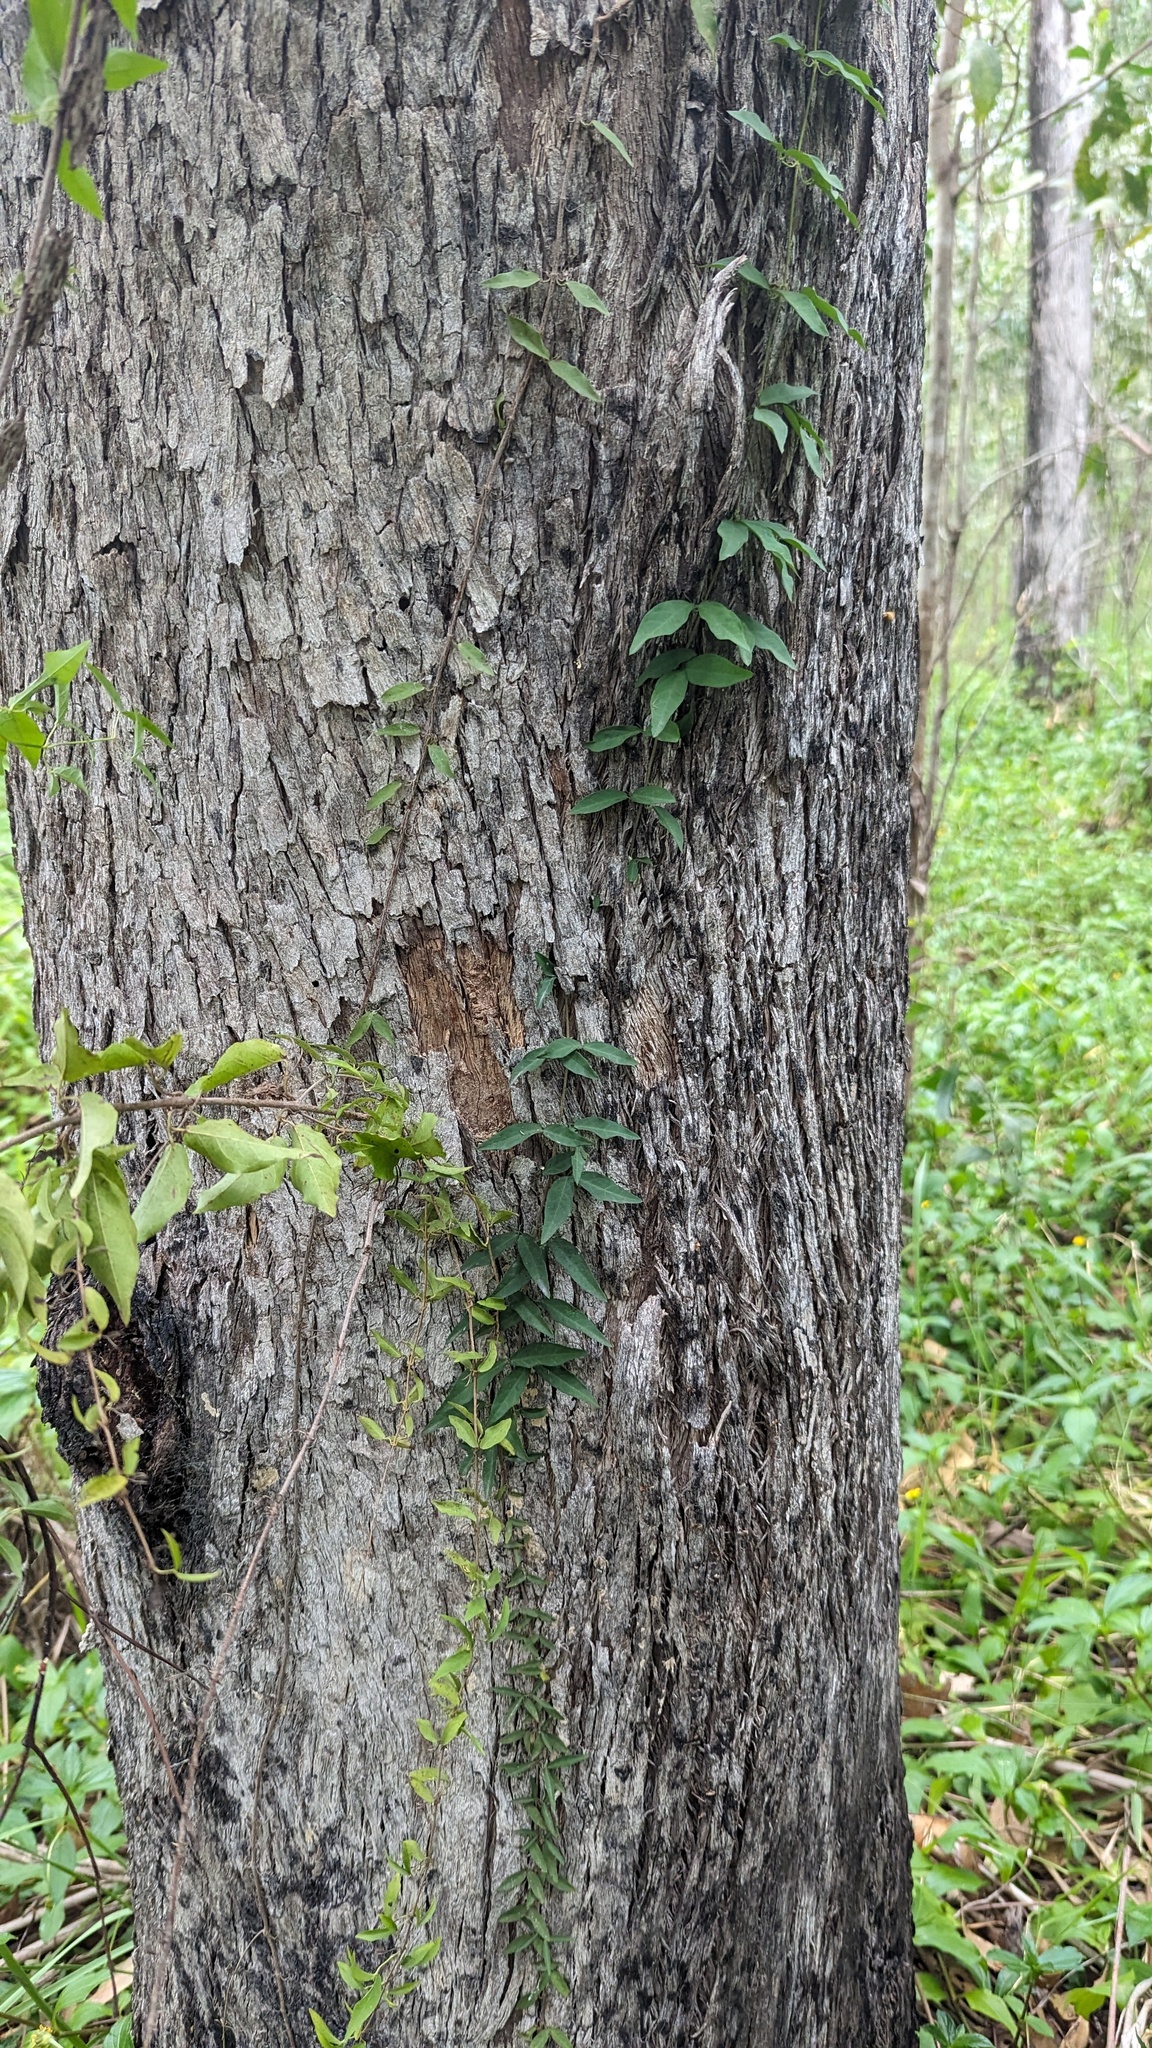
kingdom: Plantae
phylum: Tracheophyta
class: Magnoliopsida
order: Lamiales
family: Bignoniaceae
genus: Dolichandra
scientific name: Dolichandra unguis-cati
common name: Catclaw vine
